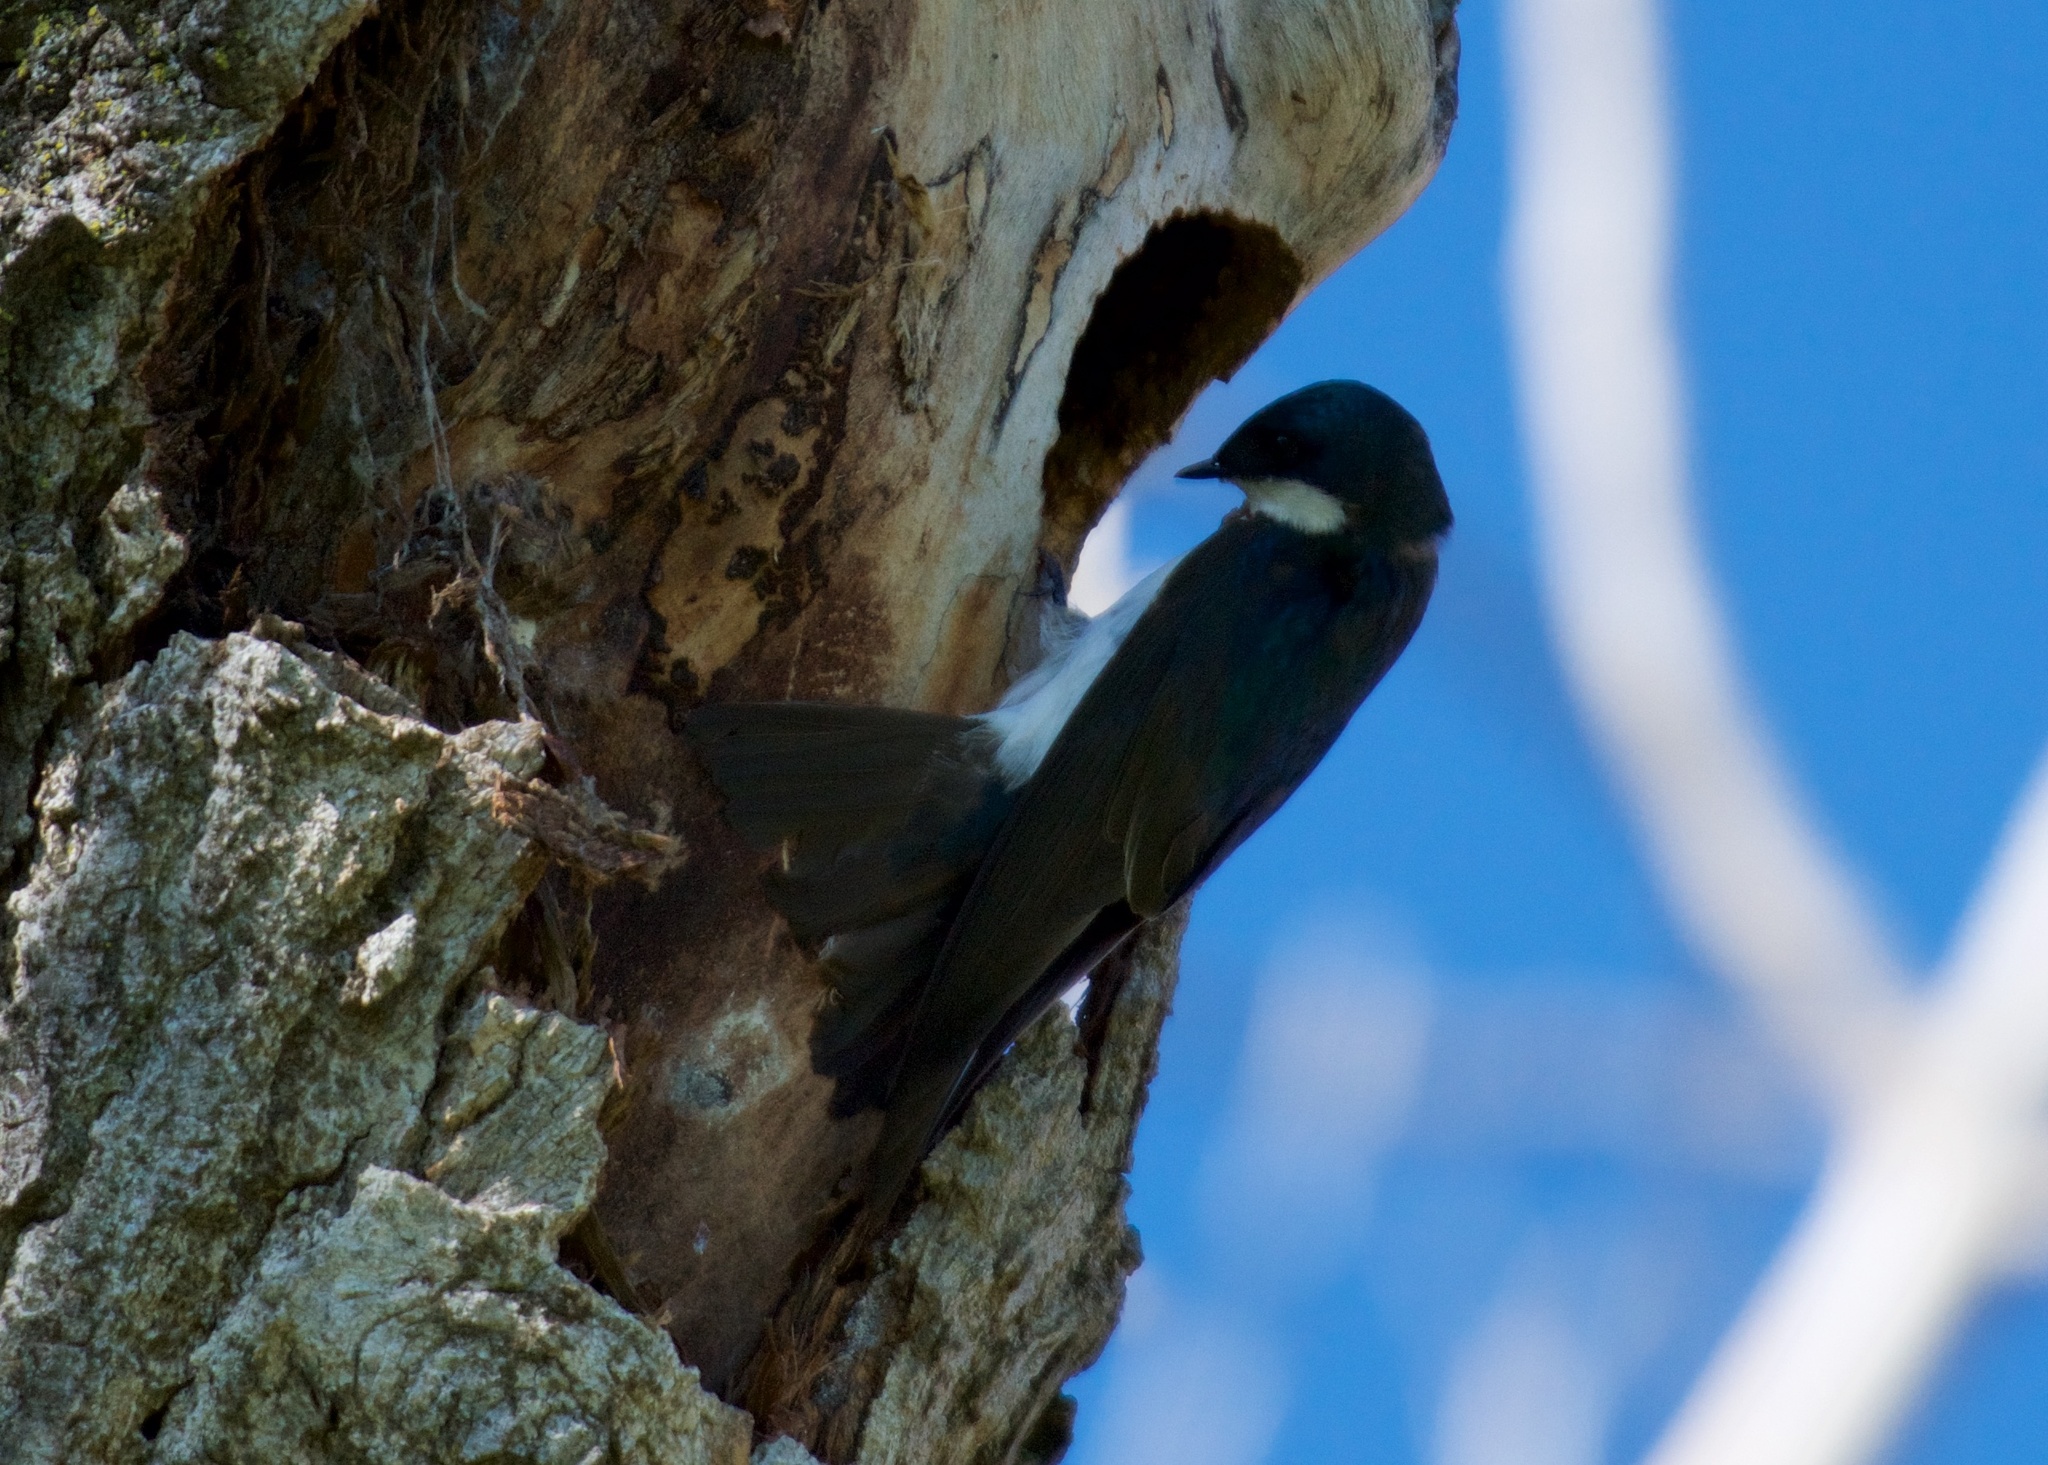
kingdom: Animalia
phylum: Chordata
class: Aves
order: Passeriformes
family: Hirundinidae
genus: Tachycineta
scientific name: Tachycineta bicolor
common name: Tree swallow
